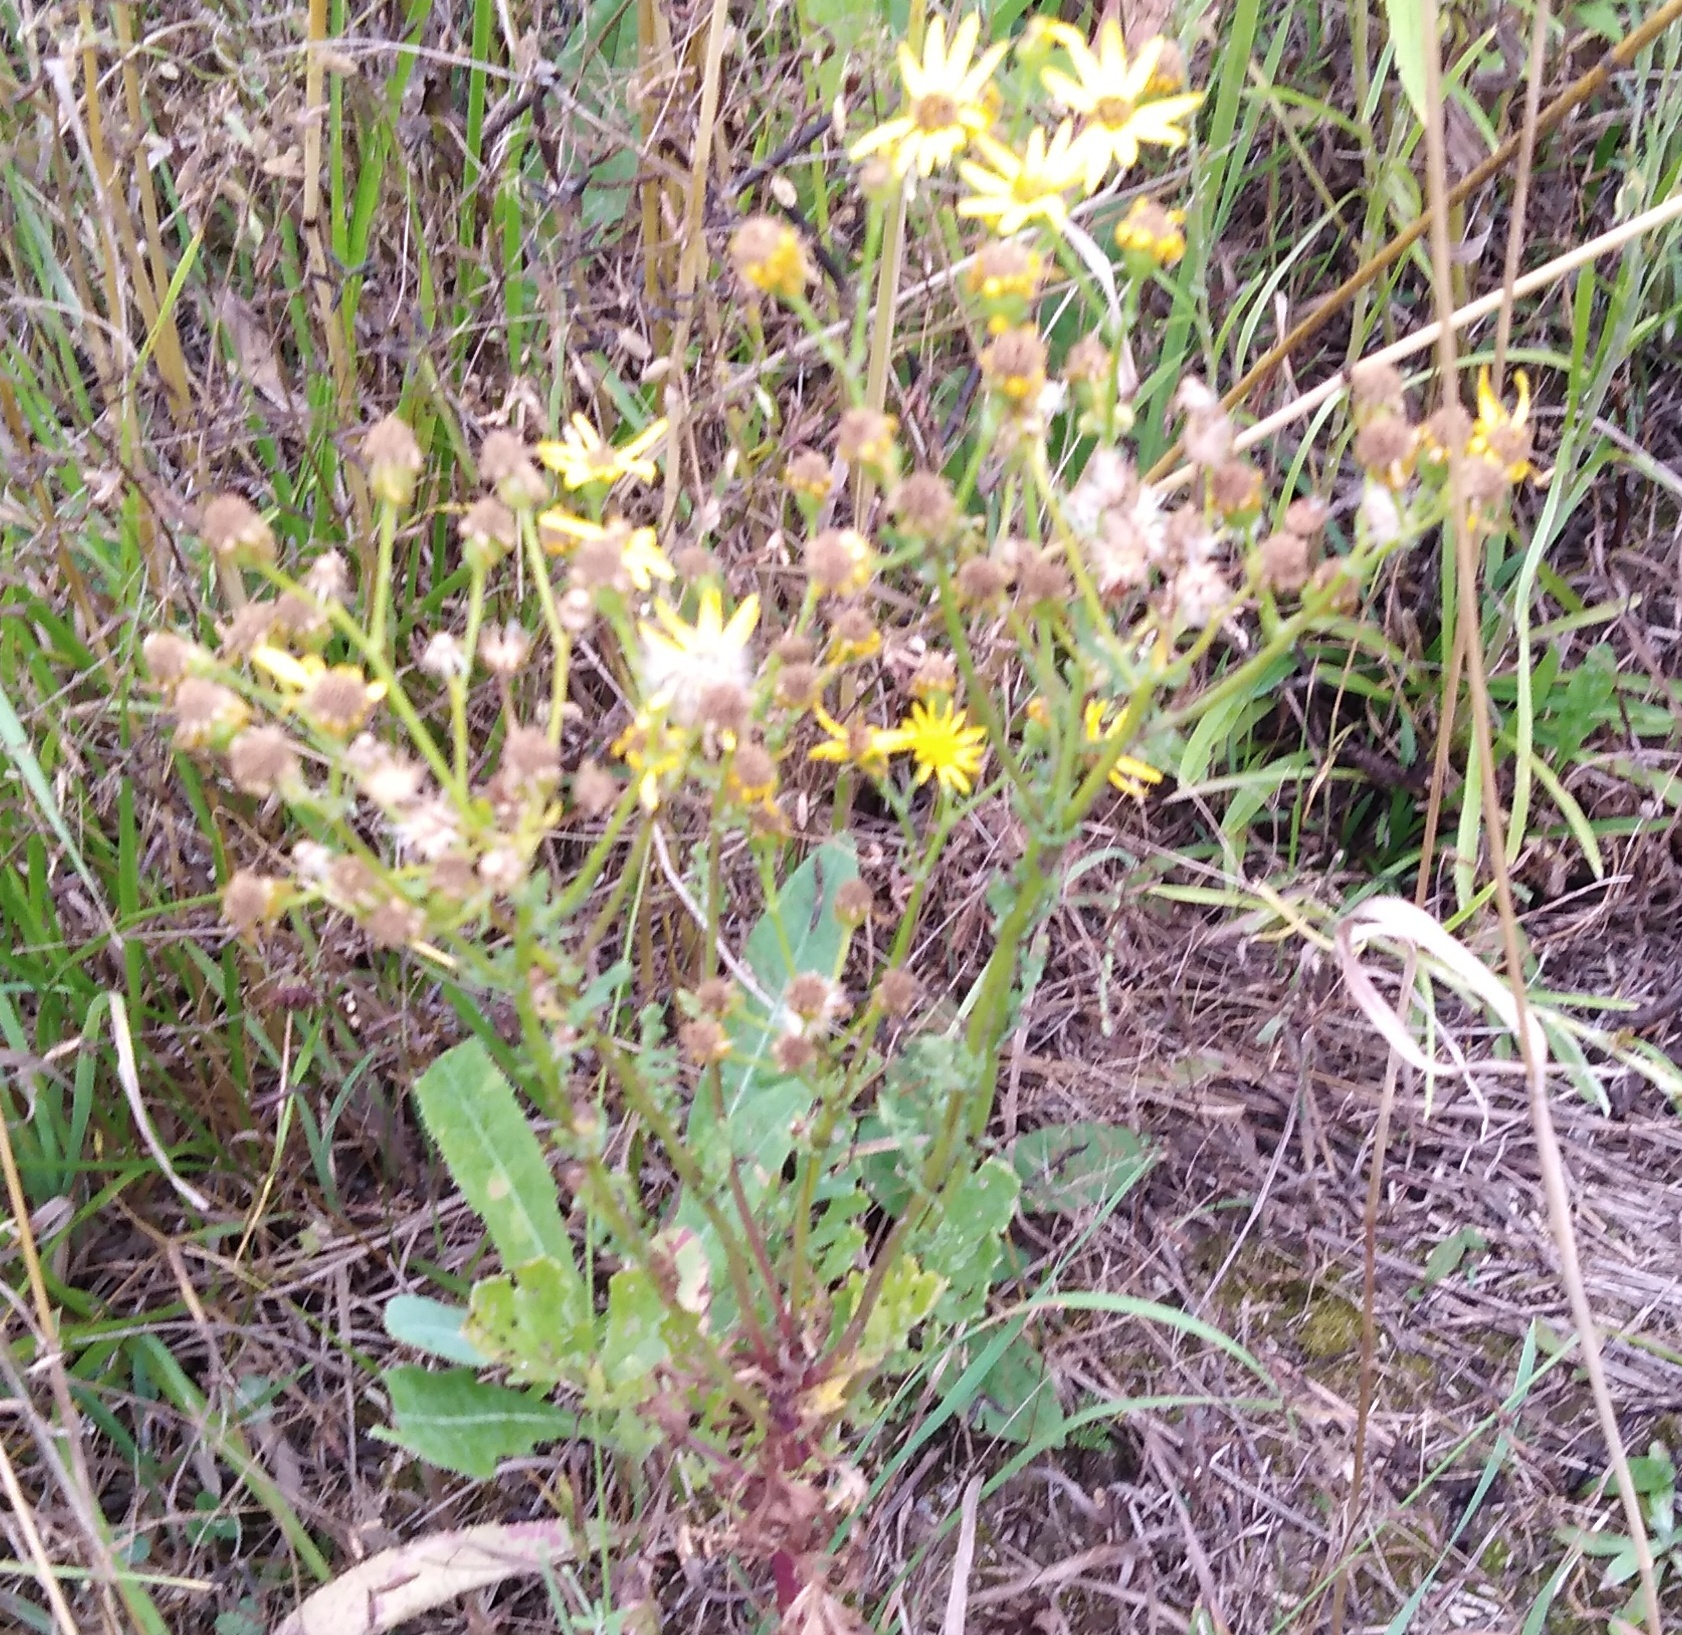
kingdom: Plantae
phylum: Tracheophyta
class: Magnoliopsida
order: Asterales
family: Asteraceae
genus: Jacobaea
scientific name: Jacobaea vulgaris
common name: Stinking willie
